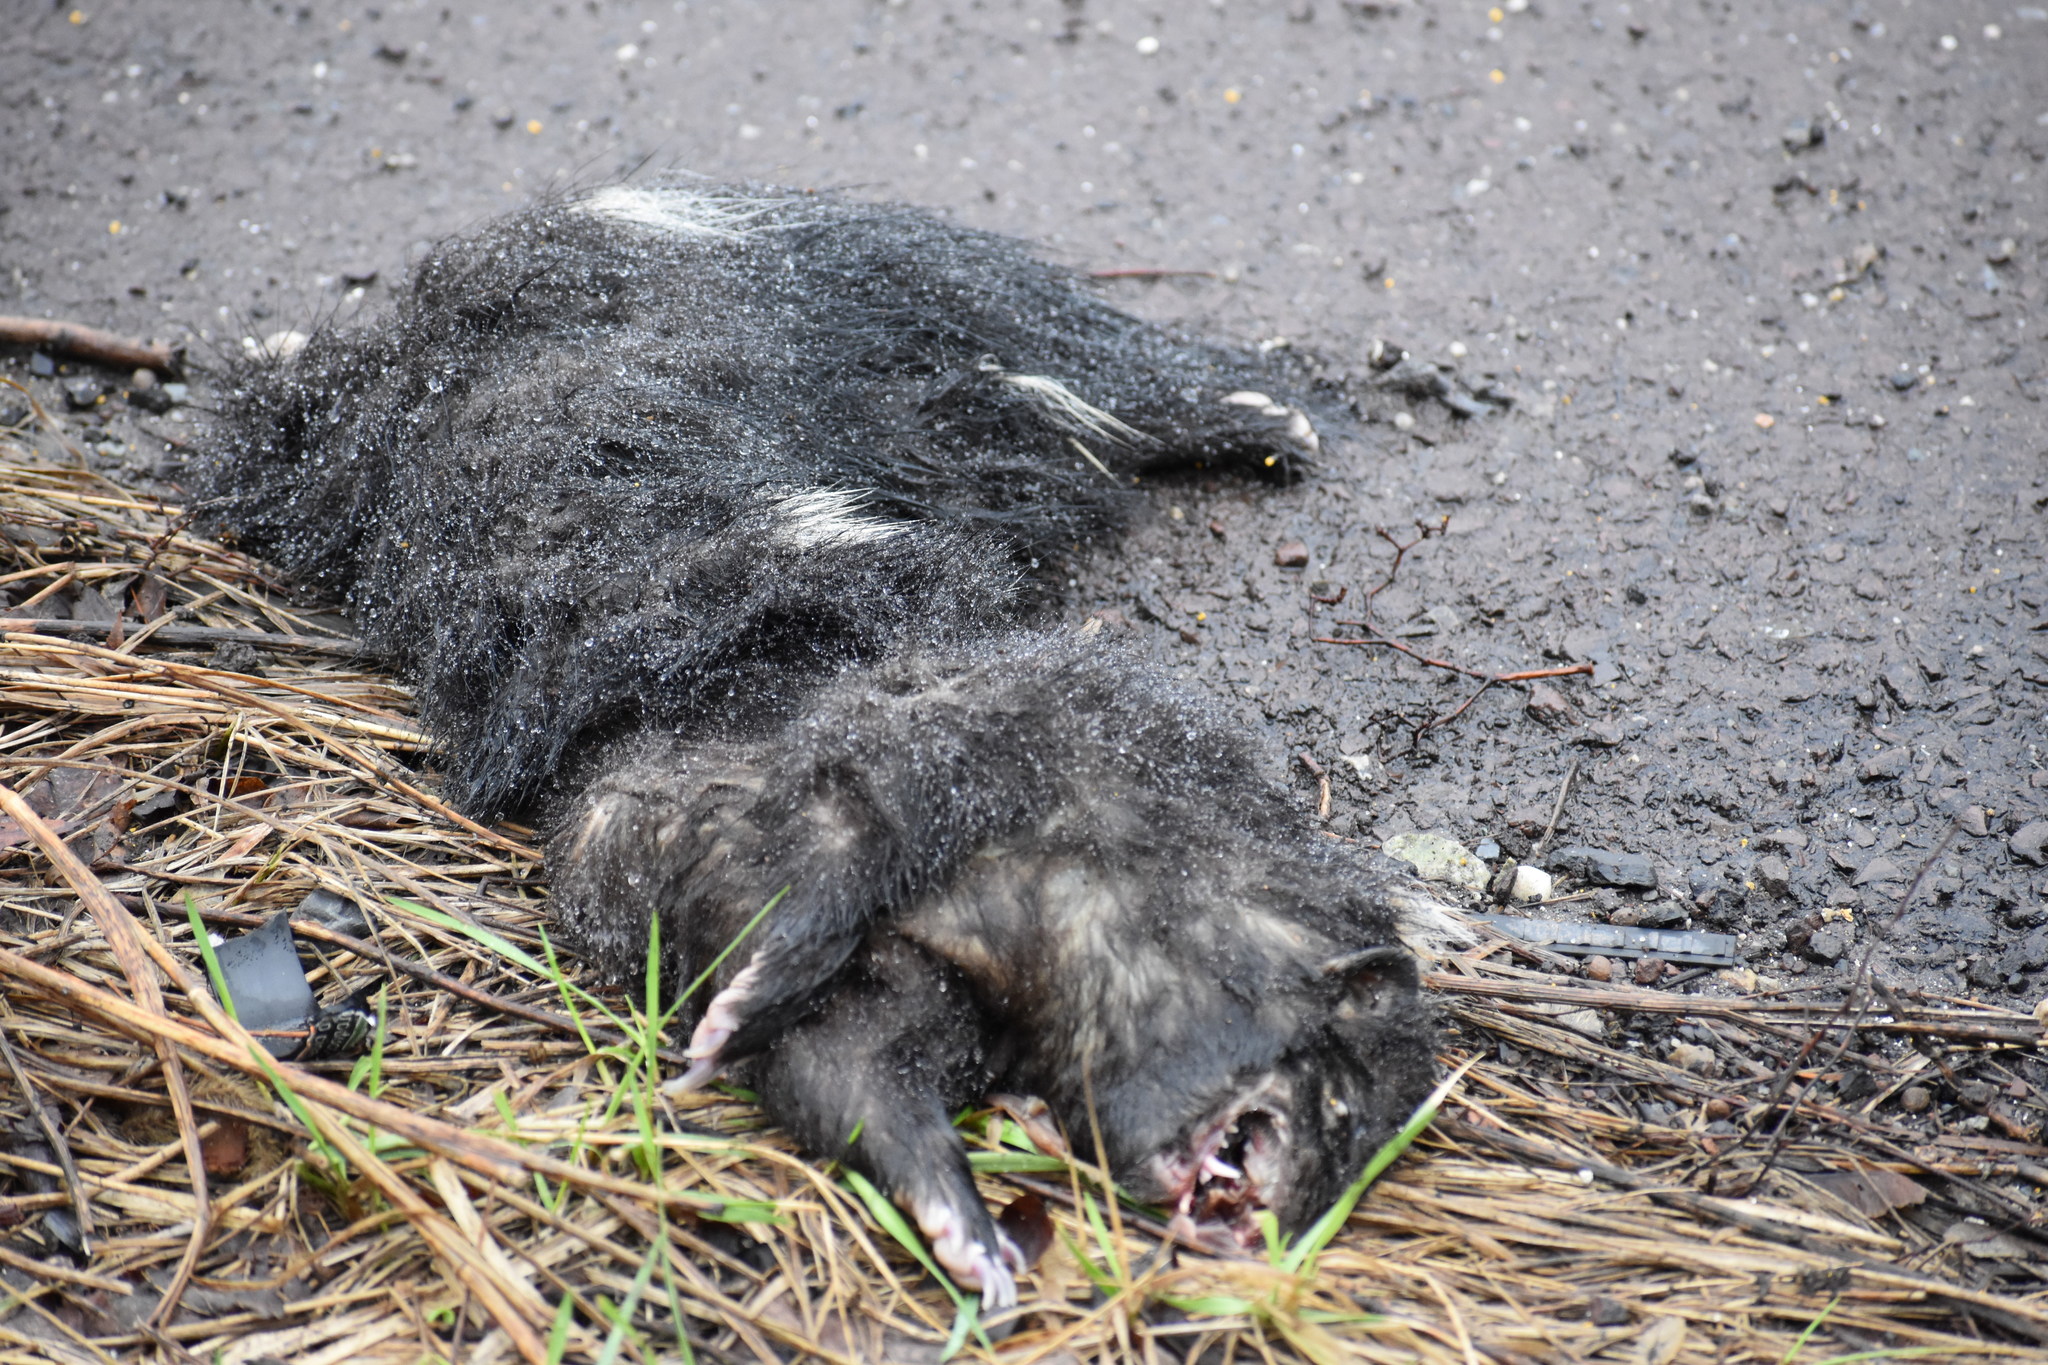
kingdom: Animalia
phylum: Chordata
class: Mammalia
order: Carnivora
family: Mephitidae
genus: Mephitis
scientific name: Mephitis mephitis
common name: Striped skunk
